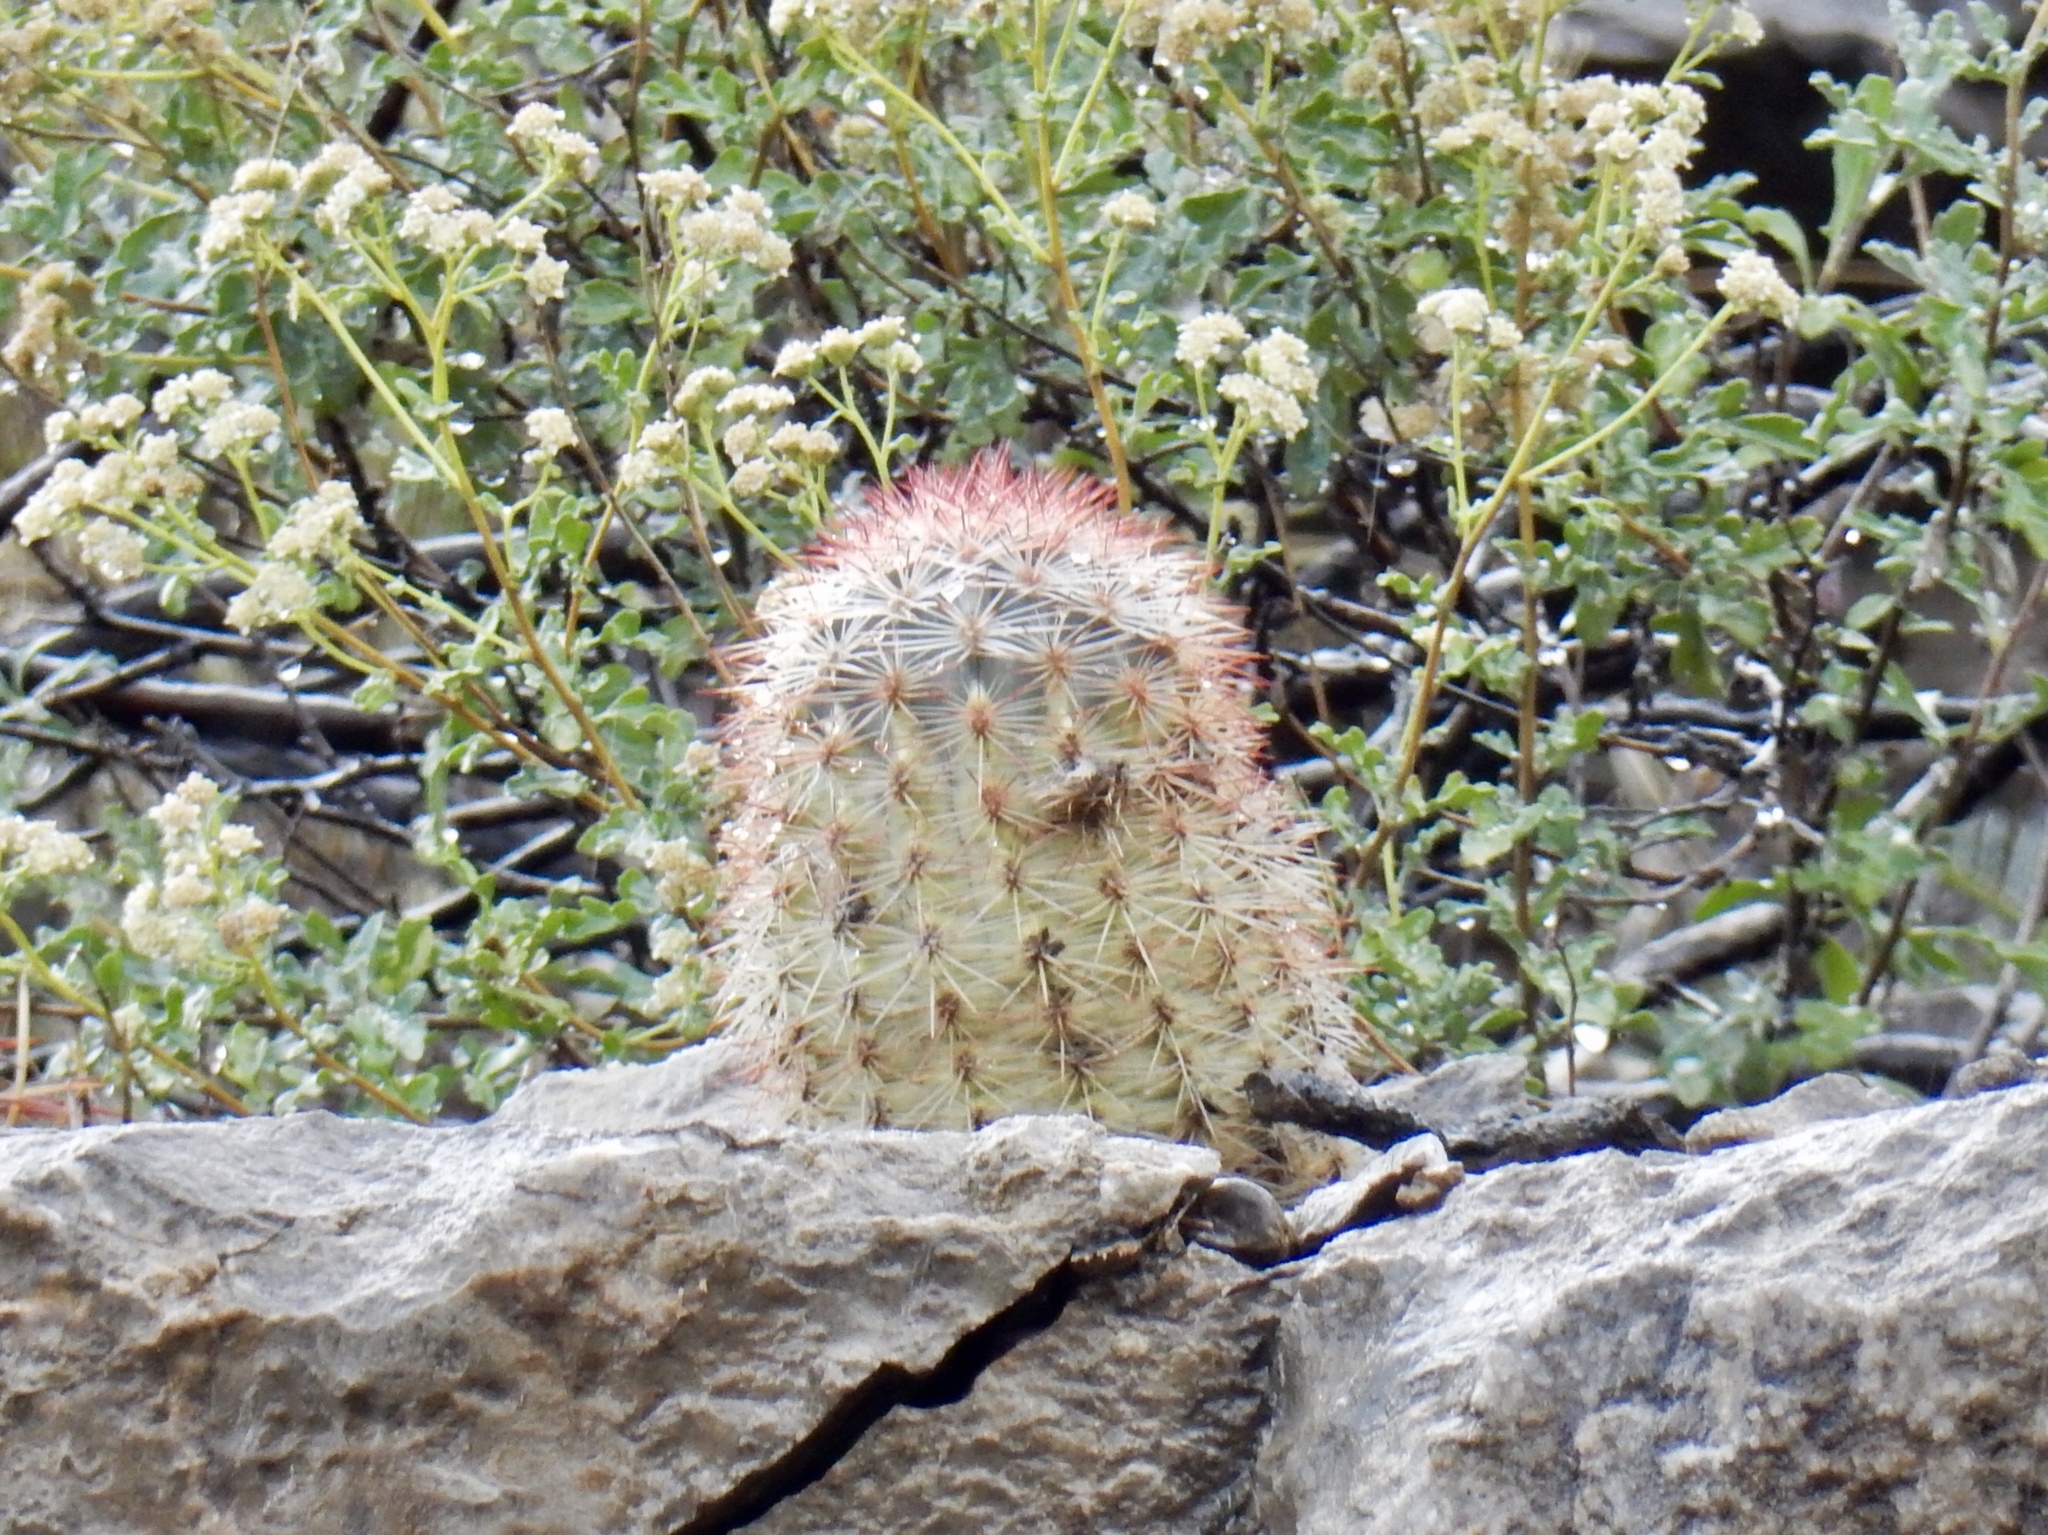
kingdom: Plantae
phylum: Tracheophyta
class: Magnoliopsida
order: Caryophyllales
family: Cactaceae
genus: Echinocereus
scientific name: Echinocereus dasyacanthus
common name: Spiny hedgehog cactus
